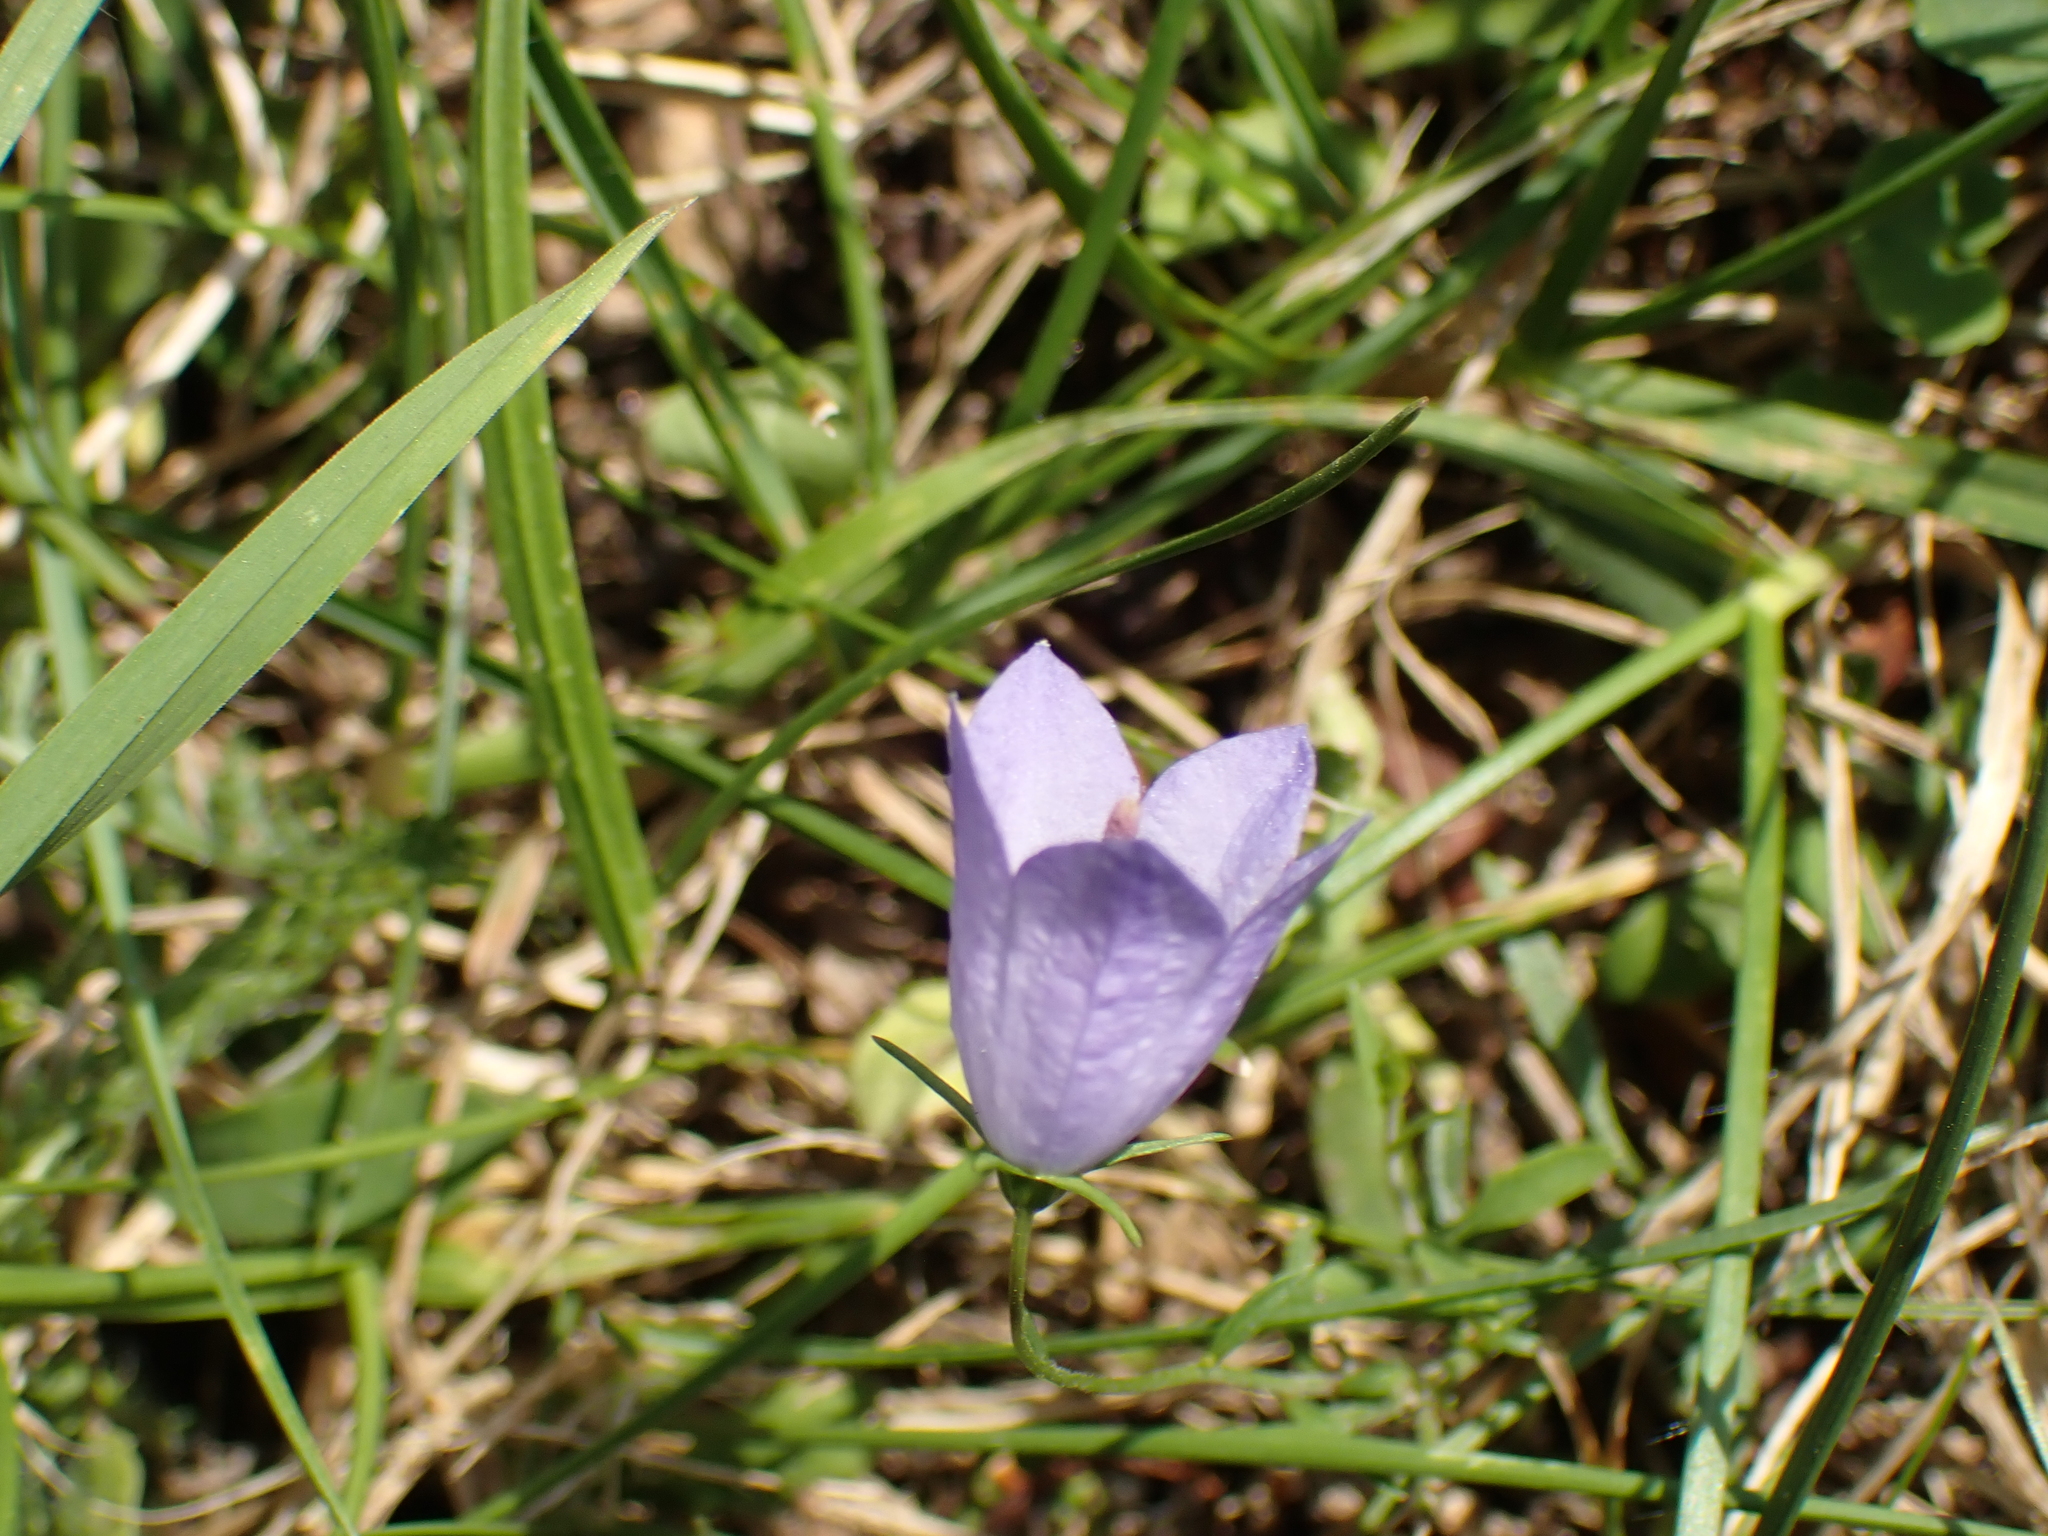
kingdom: Plantae
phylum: Tracheophyta
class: Magnoliopsida
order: Asterales
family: Campanulaceae
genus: Campanula
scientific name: Campanula rotundifolia
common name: Harebell
